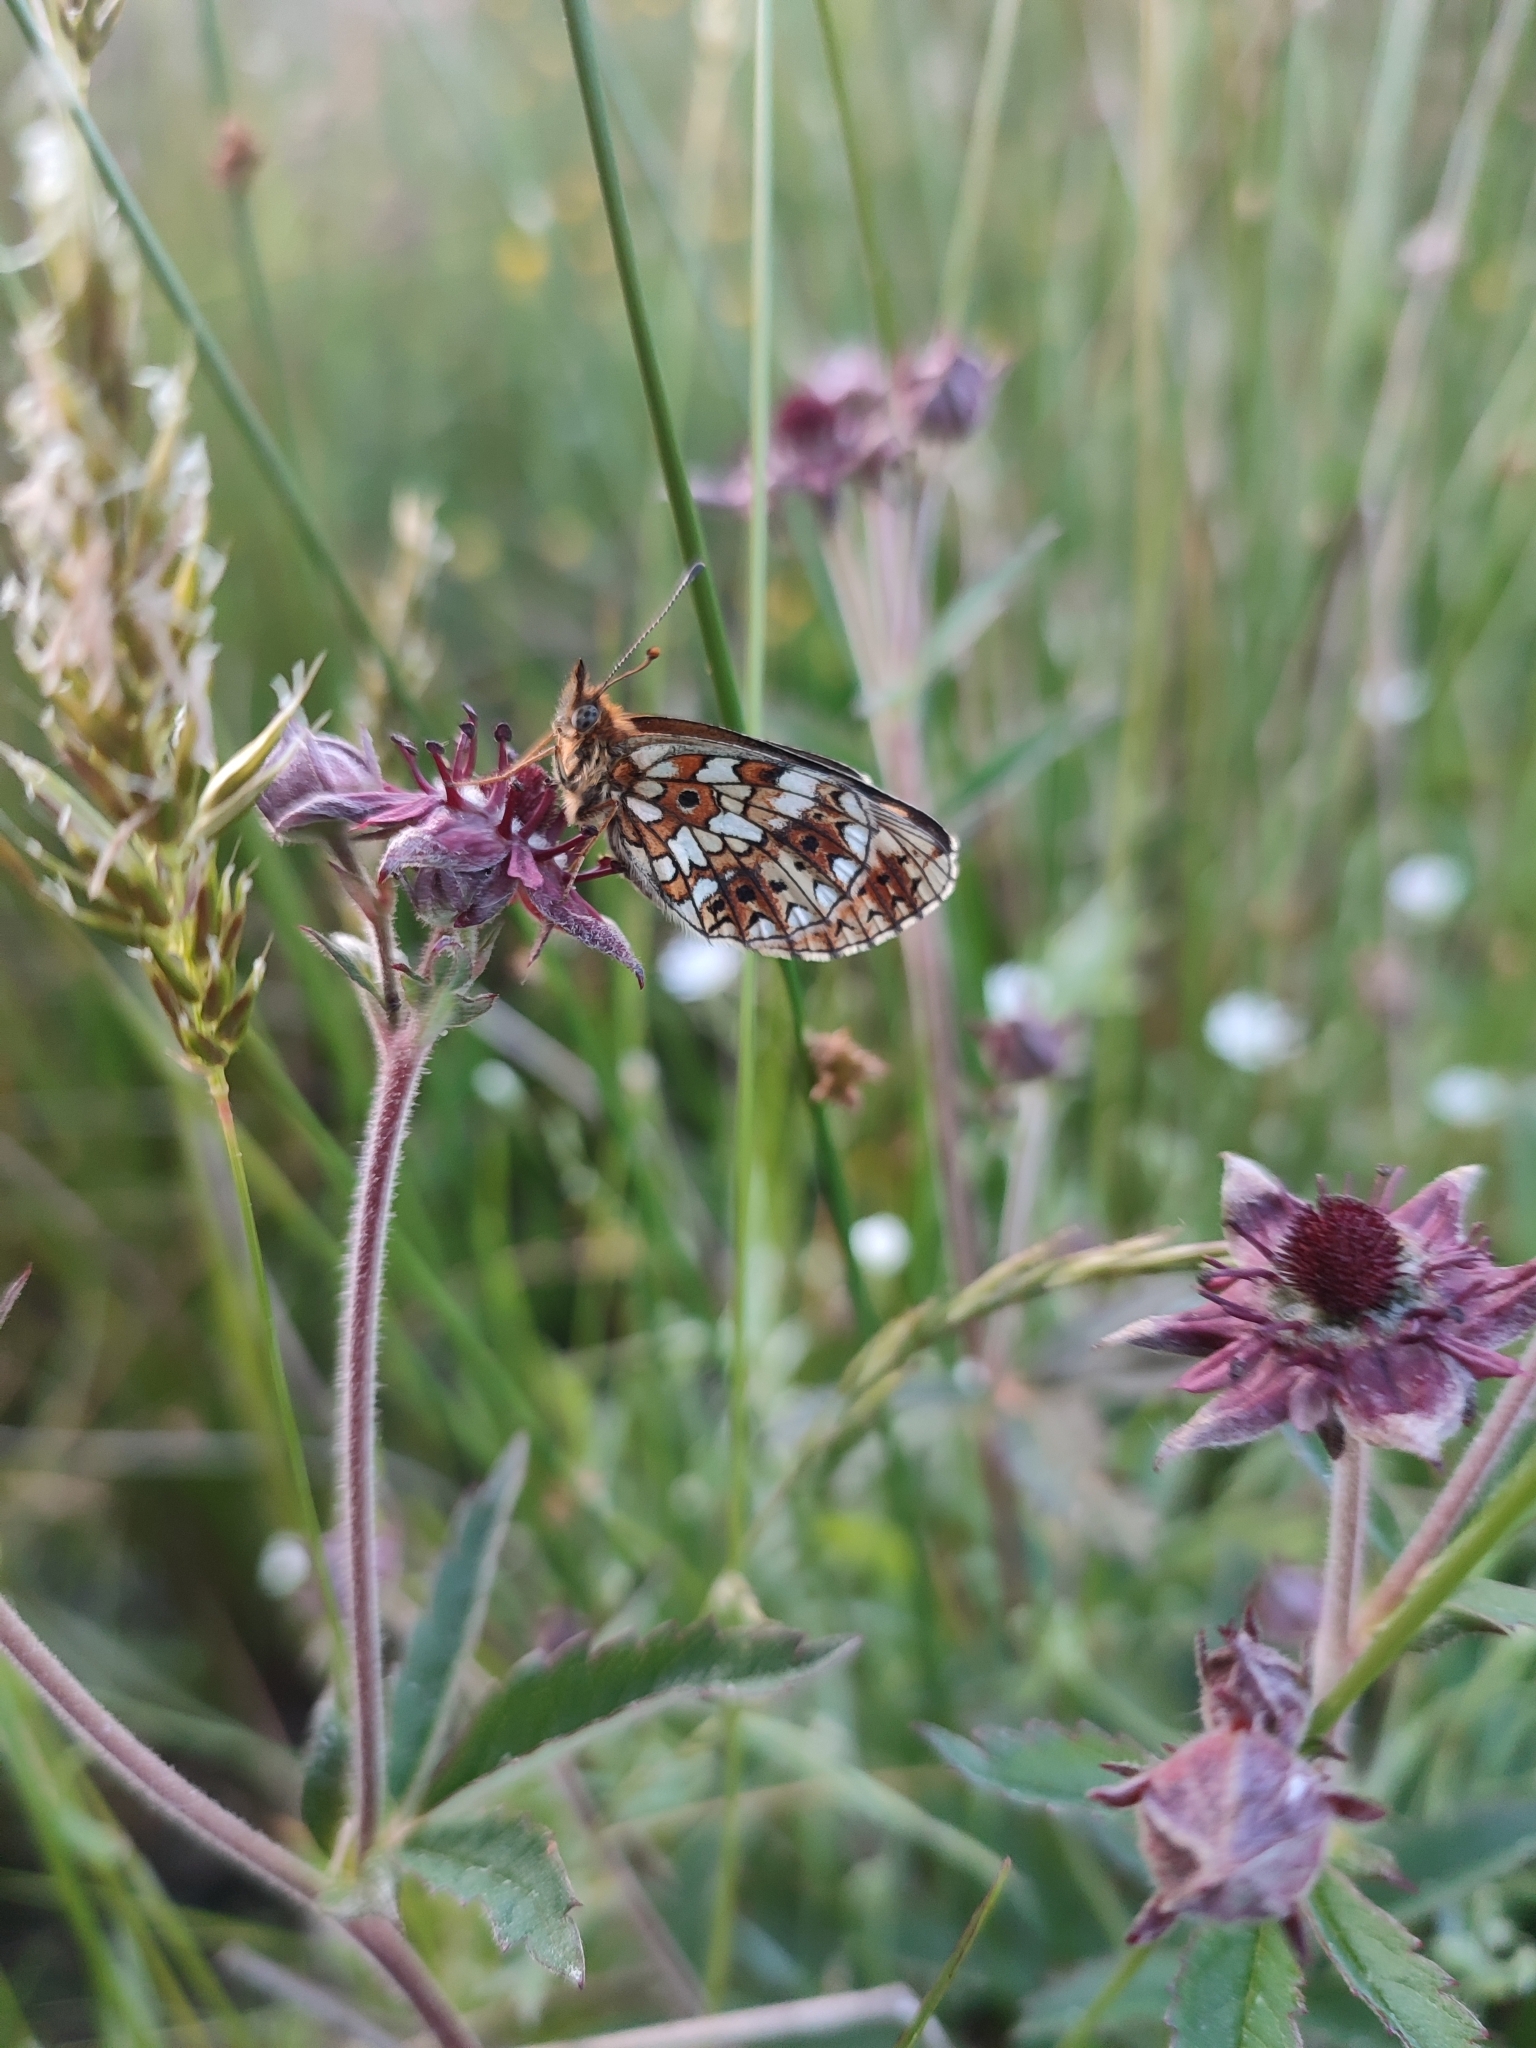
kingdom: Animalia
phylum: Arthropoda
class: Insecta
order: Lepidoptera
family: Nymphalidae
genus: Boloria
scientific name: Boloria selene
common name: Small pearl-bordered fritillary
